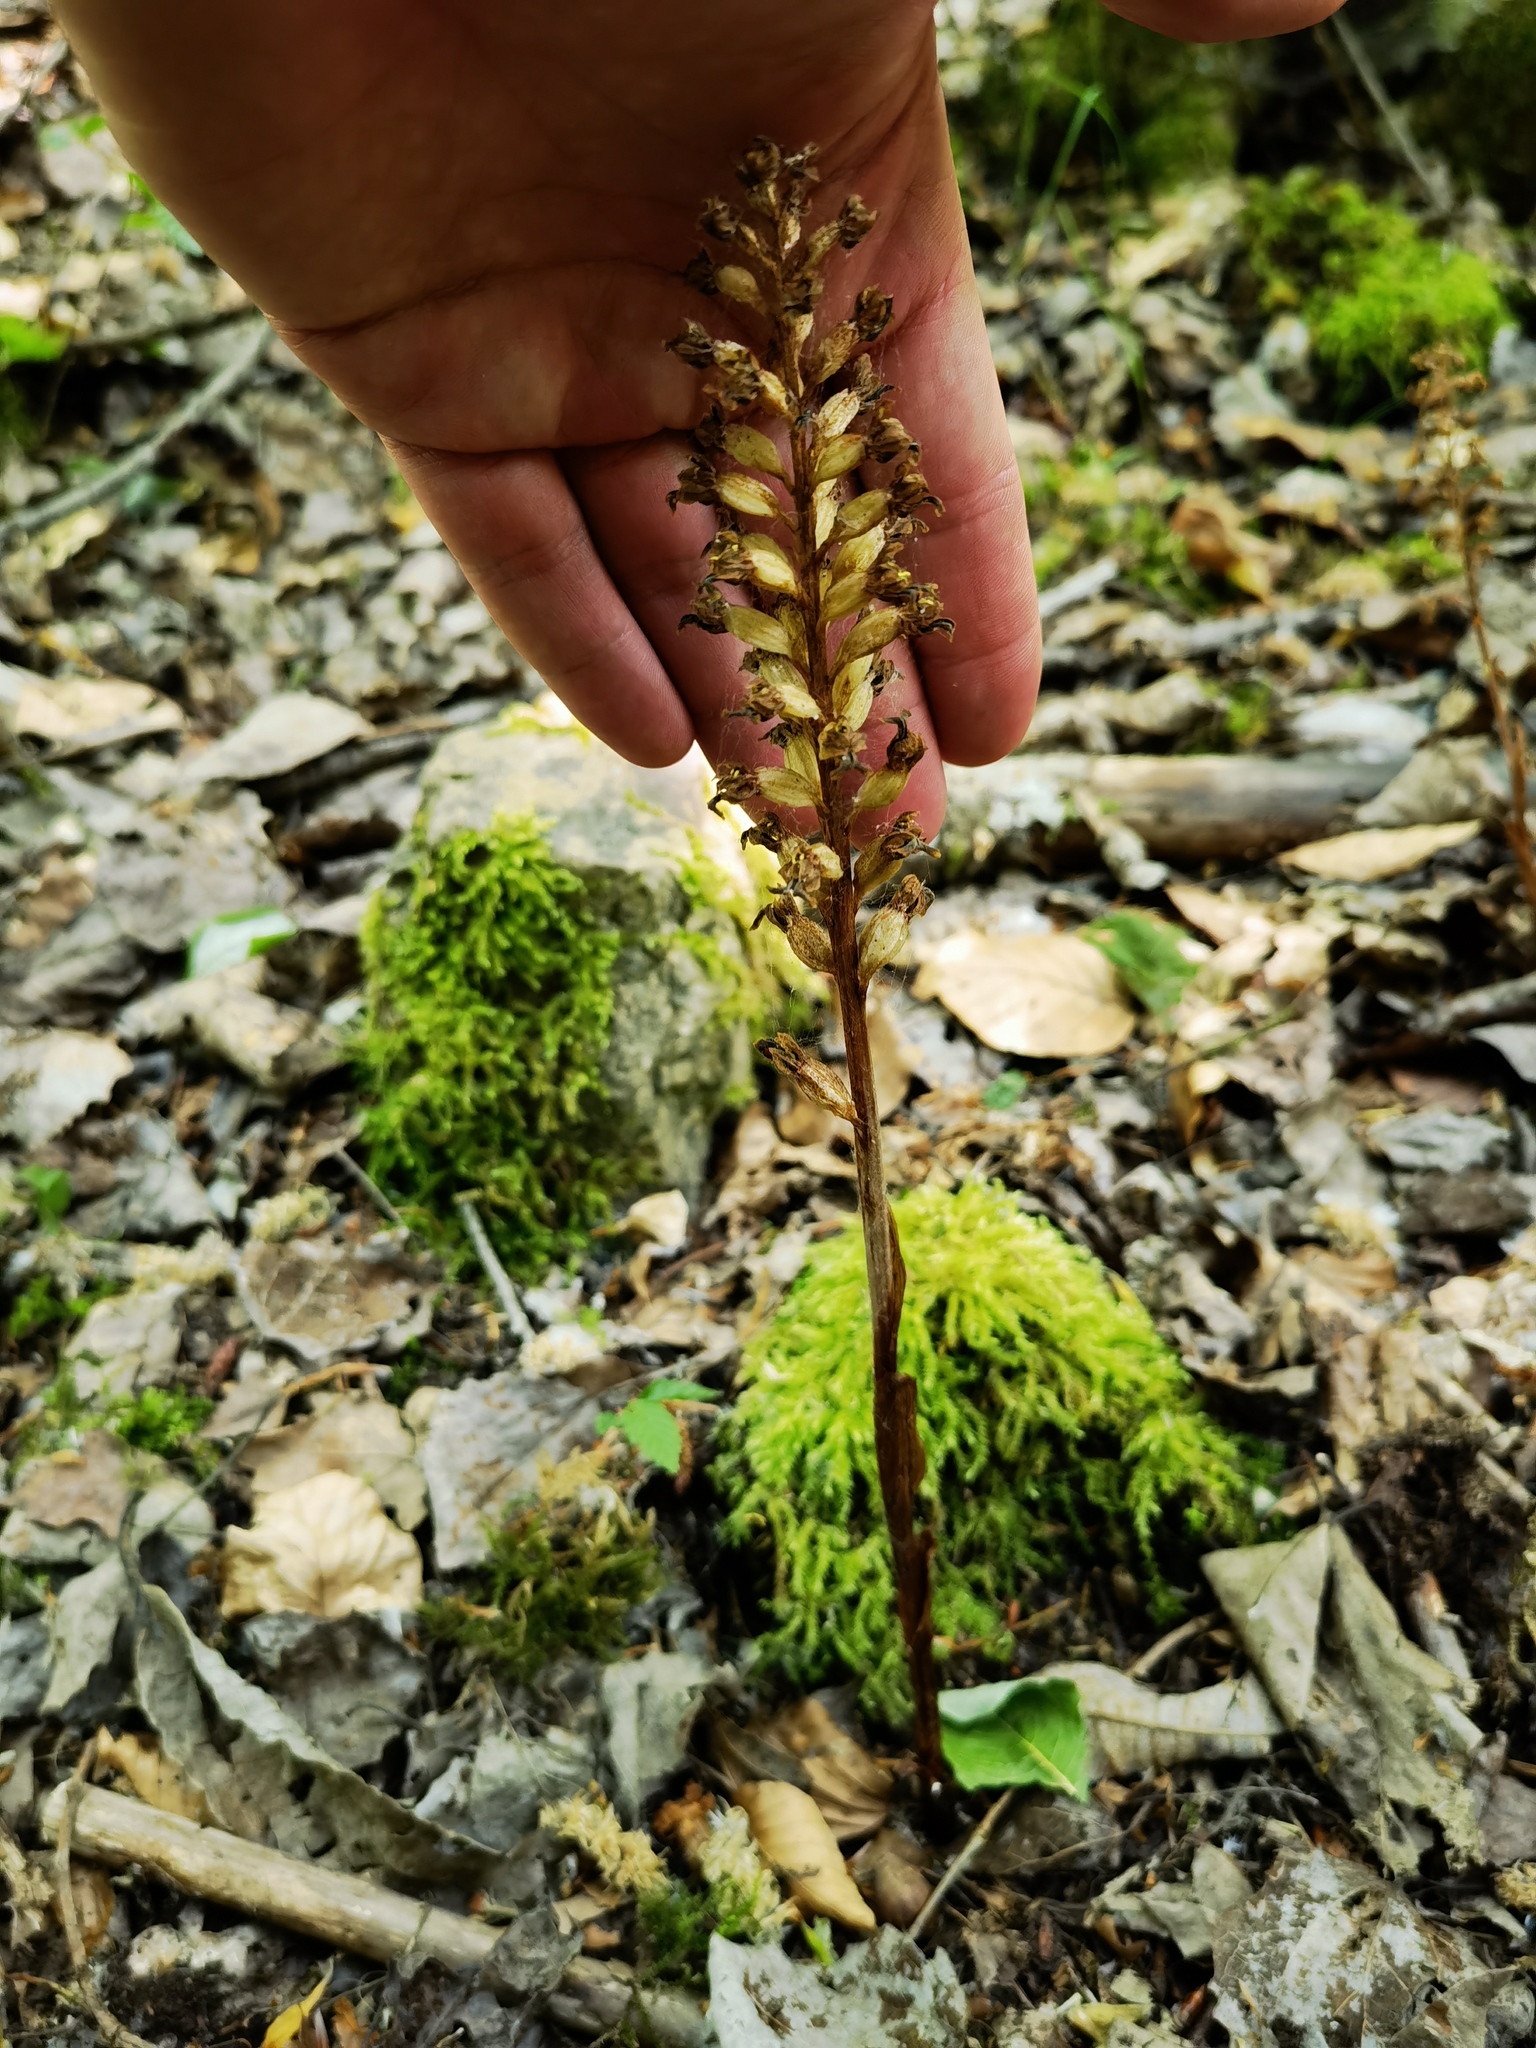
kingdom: Plantae
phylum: Tracheophyta
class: Liliopsida
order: Asparagales
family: Orchidaceae
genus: Neottia
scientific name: Neottia ovata
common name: Common twayblade
